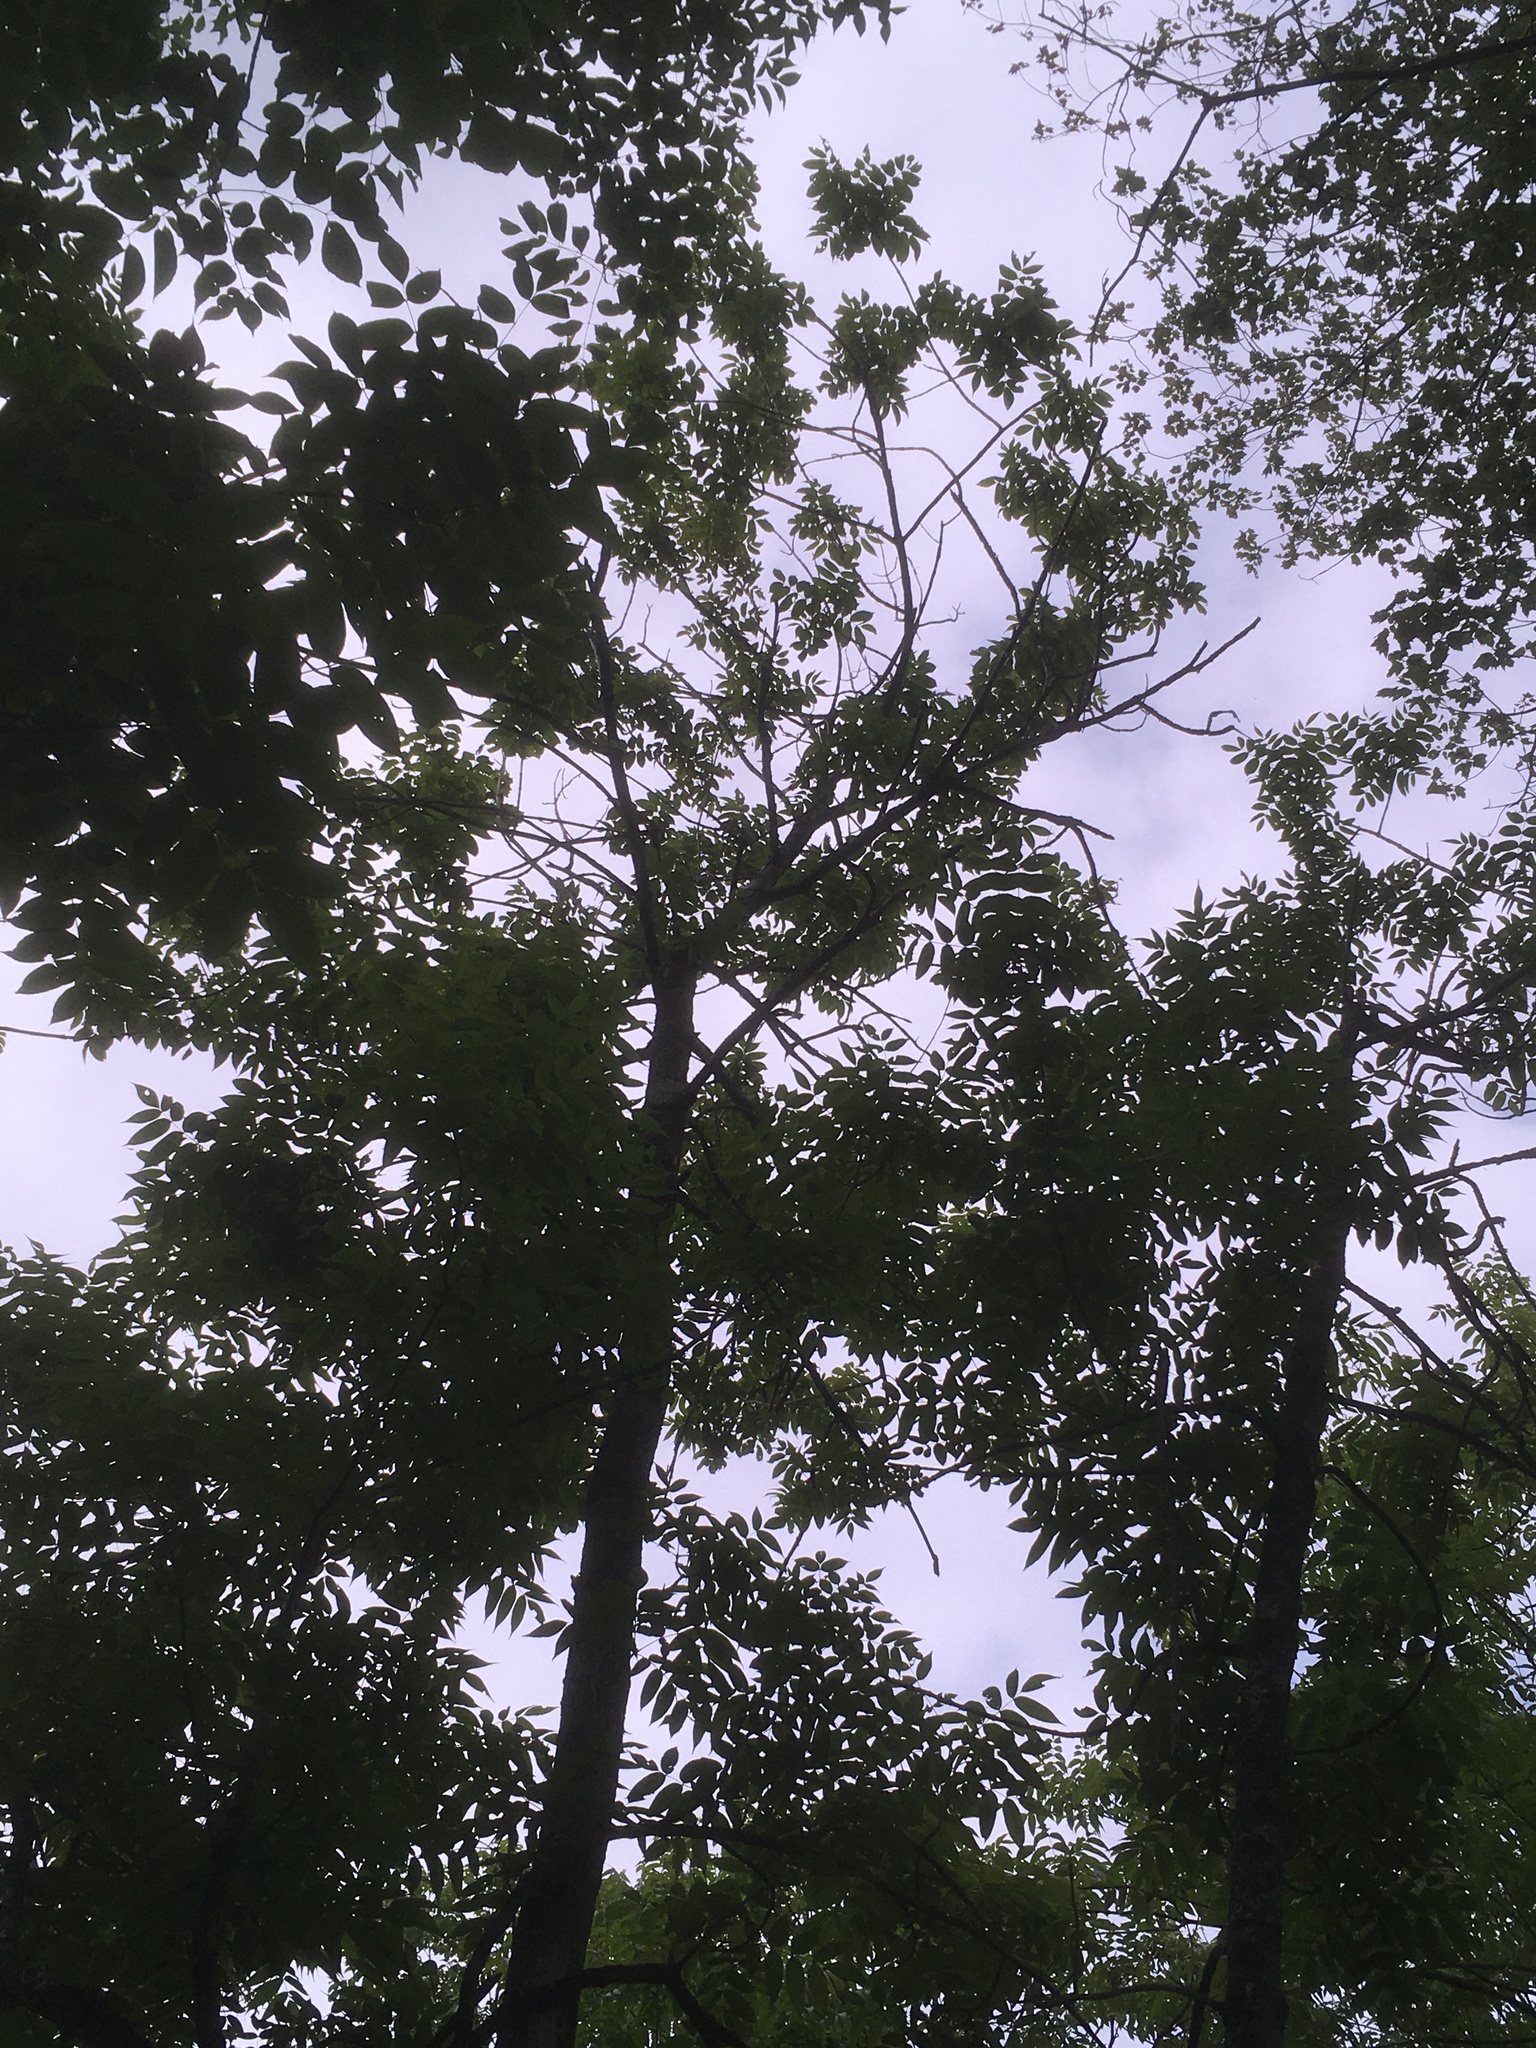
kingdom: Plantae
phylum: Tracheophyta
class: Magnoliopsida
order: Lamiales
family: Oleaceae
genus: Fraxinus
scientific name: Fraxinus nigra
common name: Black ash
